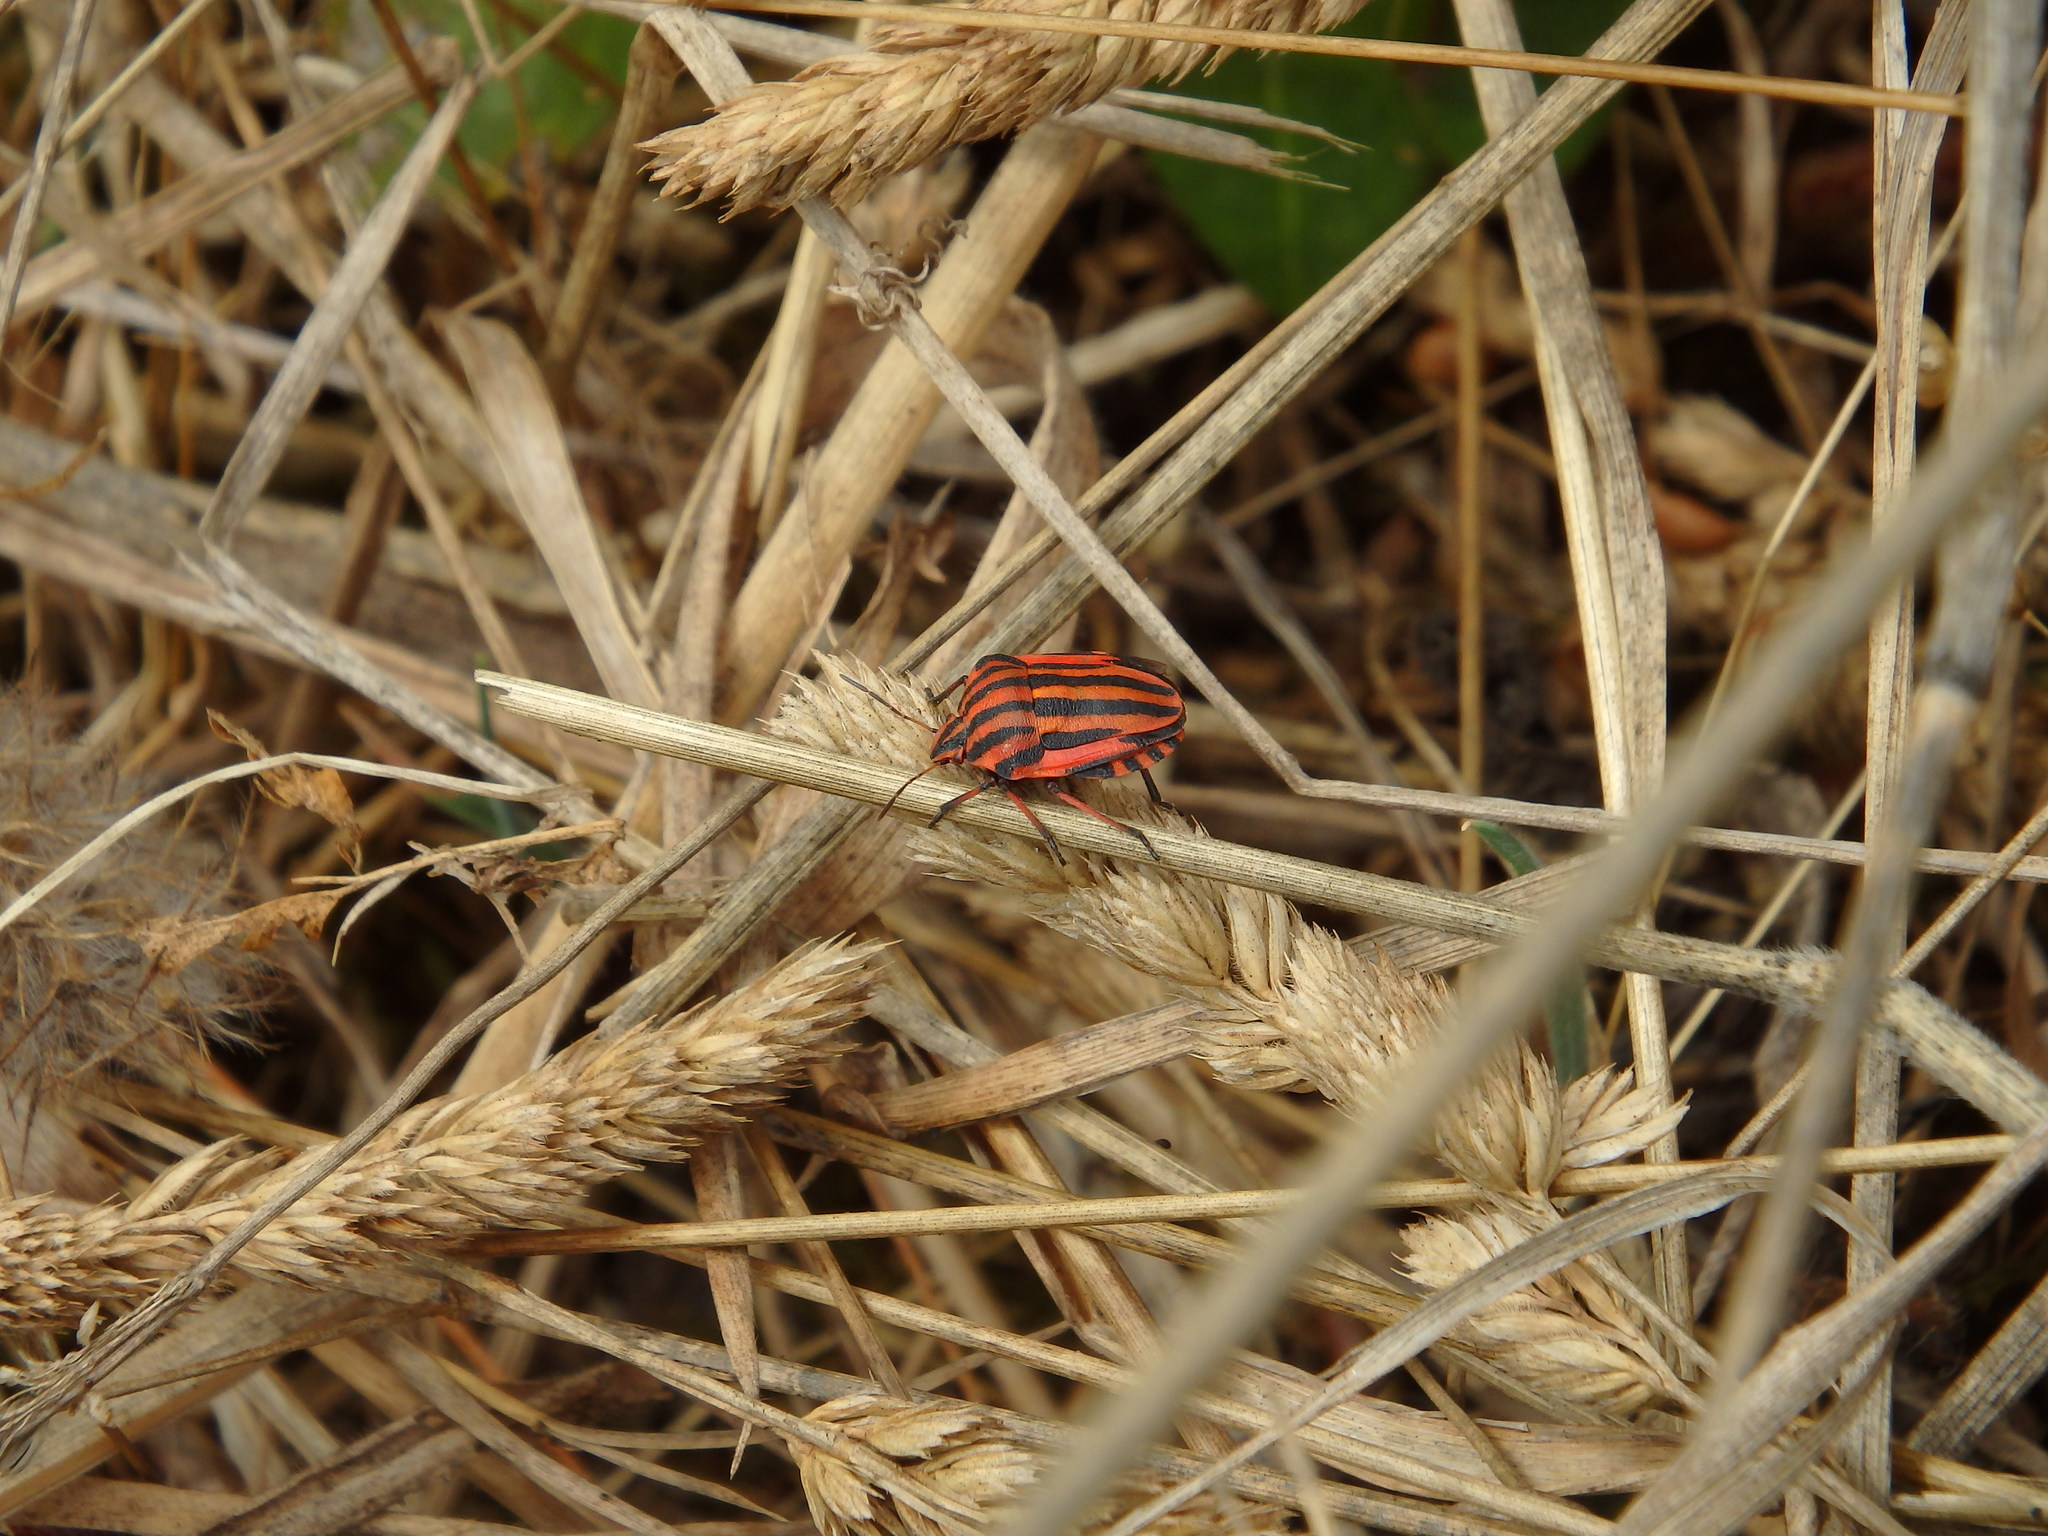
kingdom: Animalia
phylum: Arthropoda
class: Insecta
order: Hemiptera
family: Pentatomidae
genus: Graphosoma
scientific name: Graphosoma italicum
